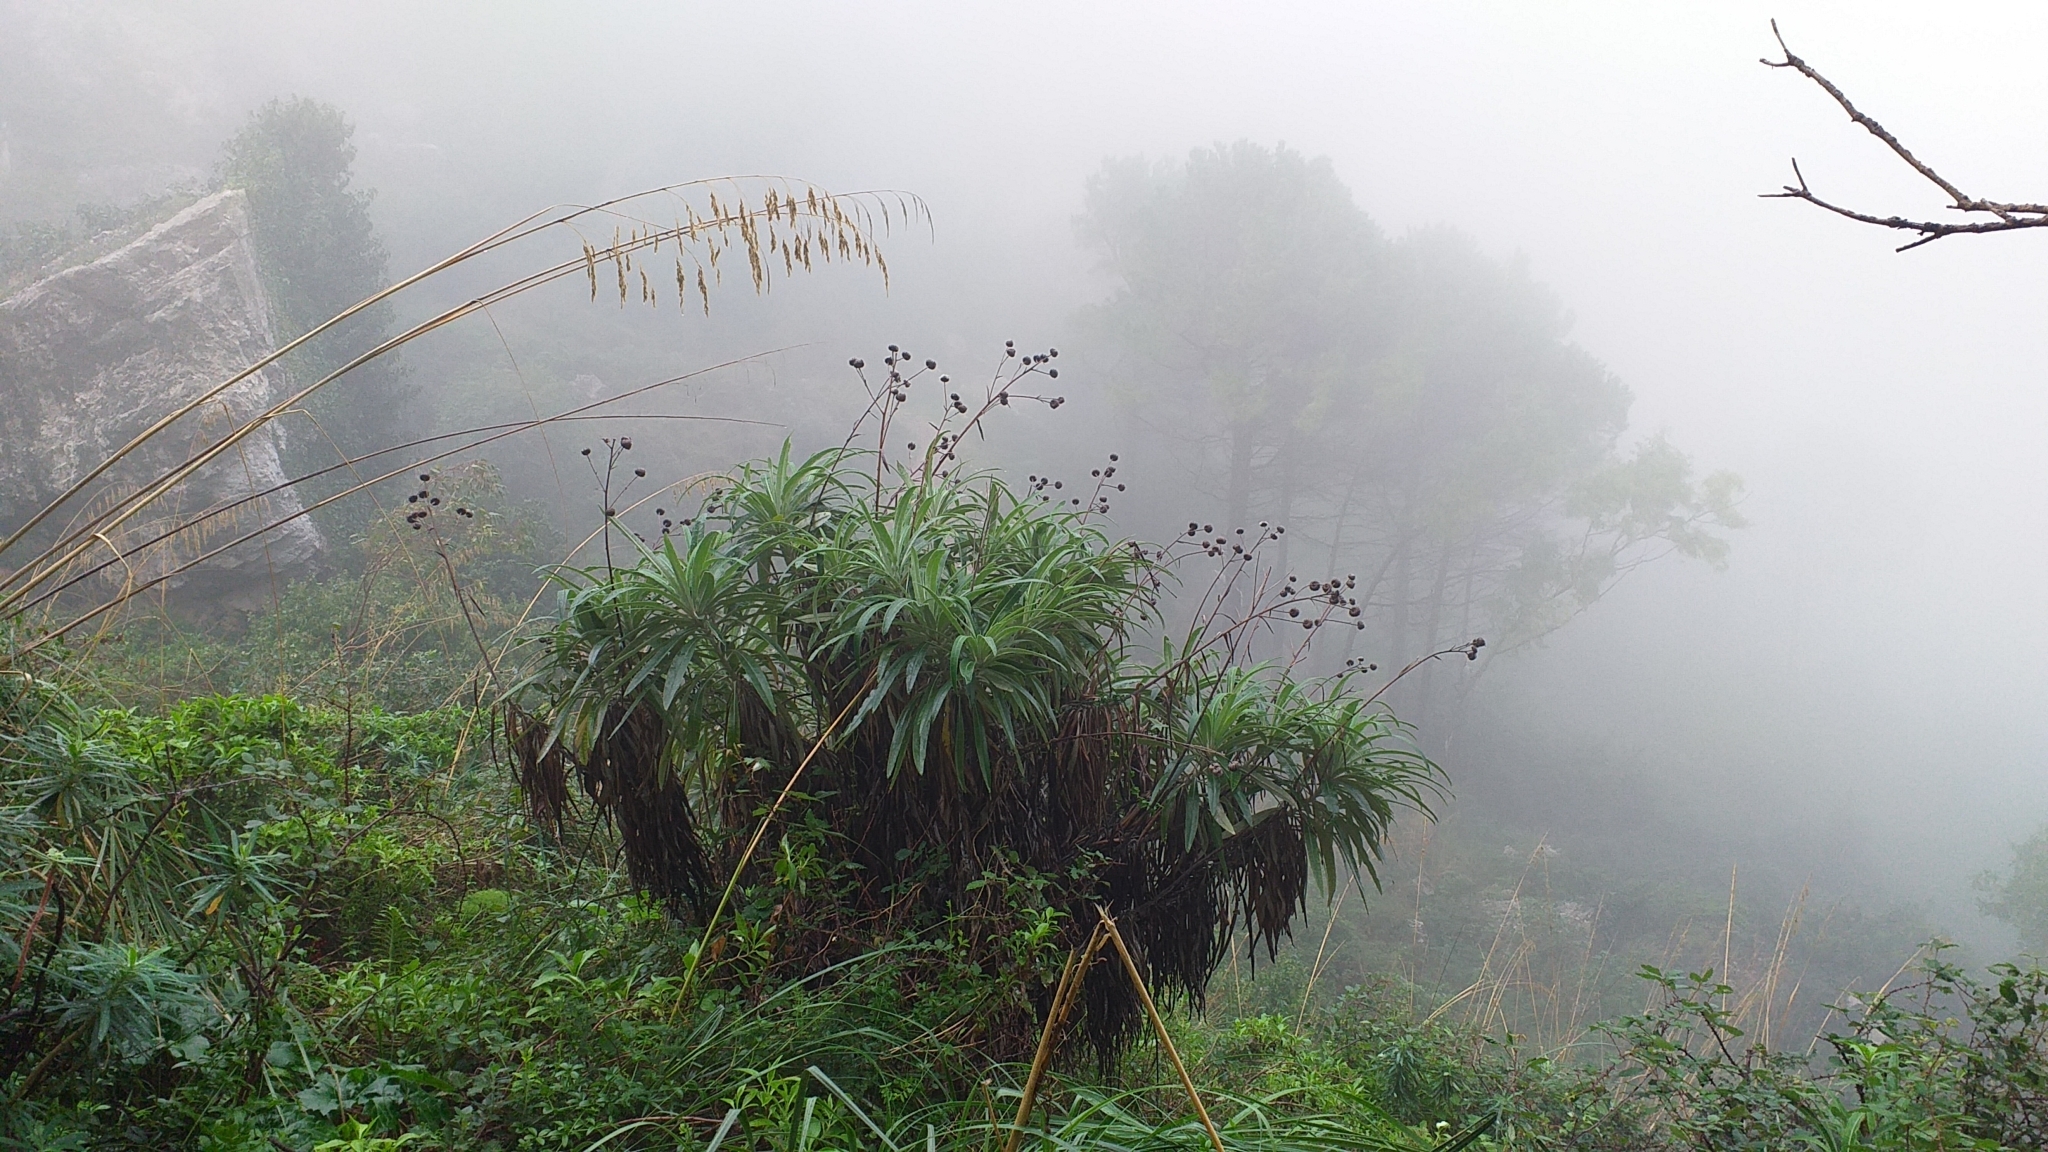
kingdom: Plantae
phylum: Tracheophyta
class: Magnoliopsida
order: Asterales
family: Asteraceae
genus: Ptilostemon
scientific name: Ptilostemon greuteri
